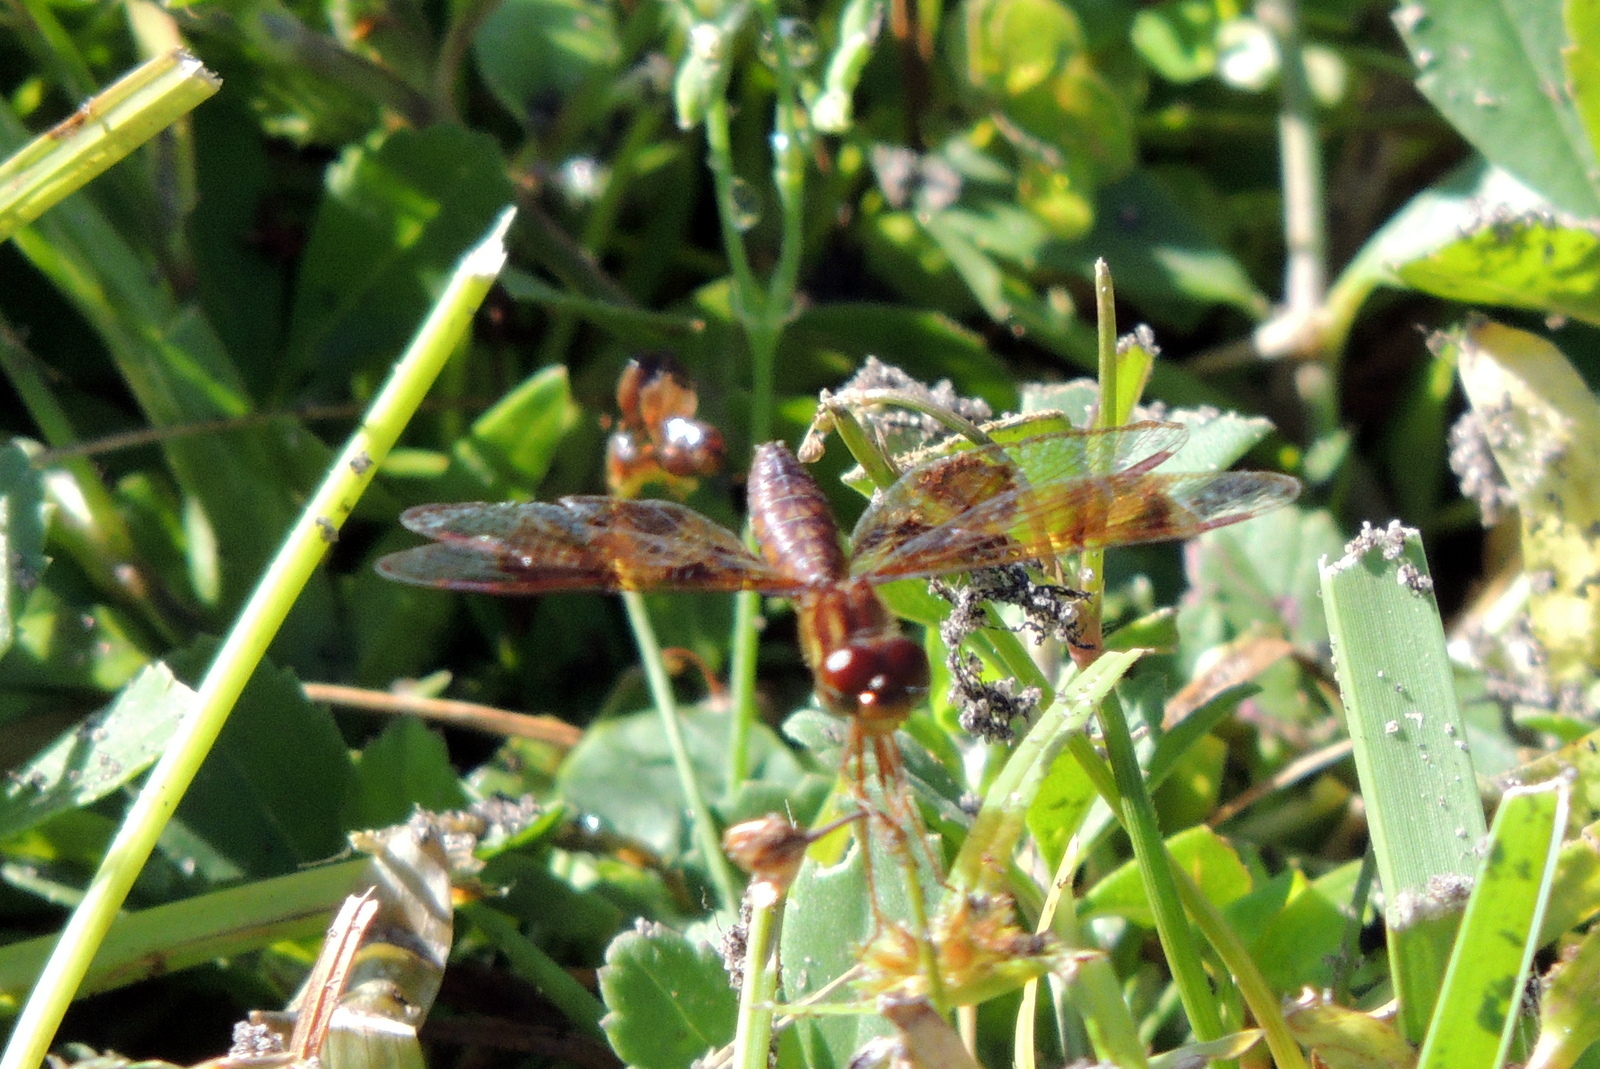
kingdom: Animalia
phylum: Arthropoda
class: Insecta
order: Odonata
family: Libellulidae
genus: Perithemis
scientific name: Perithemis tenera
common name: Eastern amberwing
